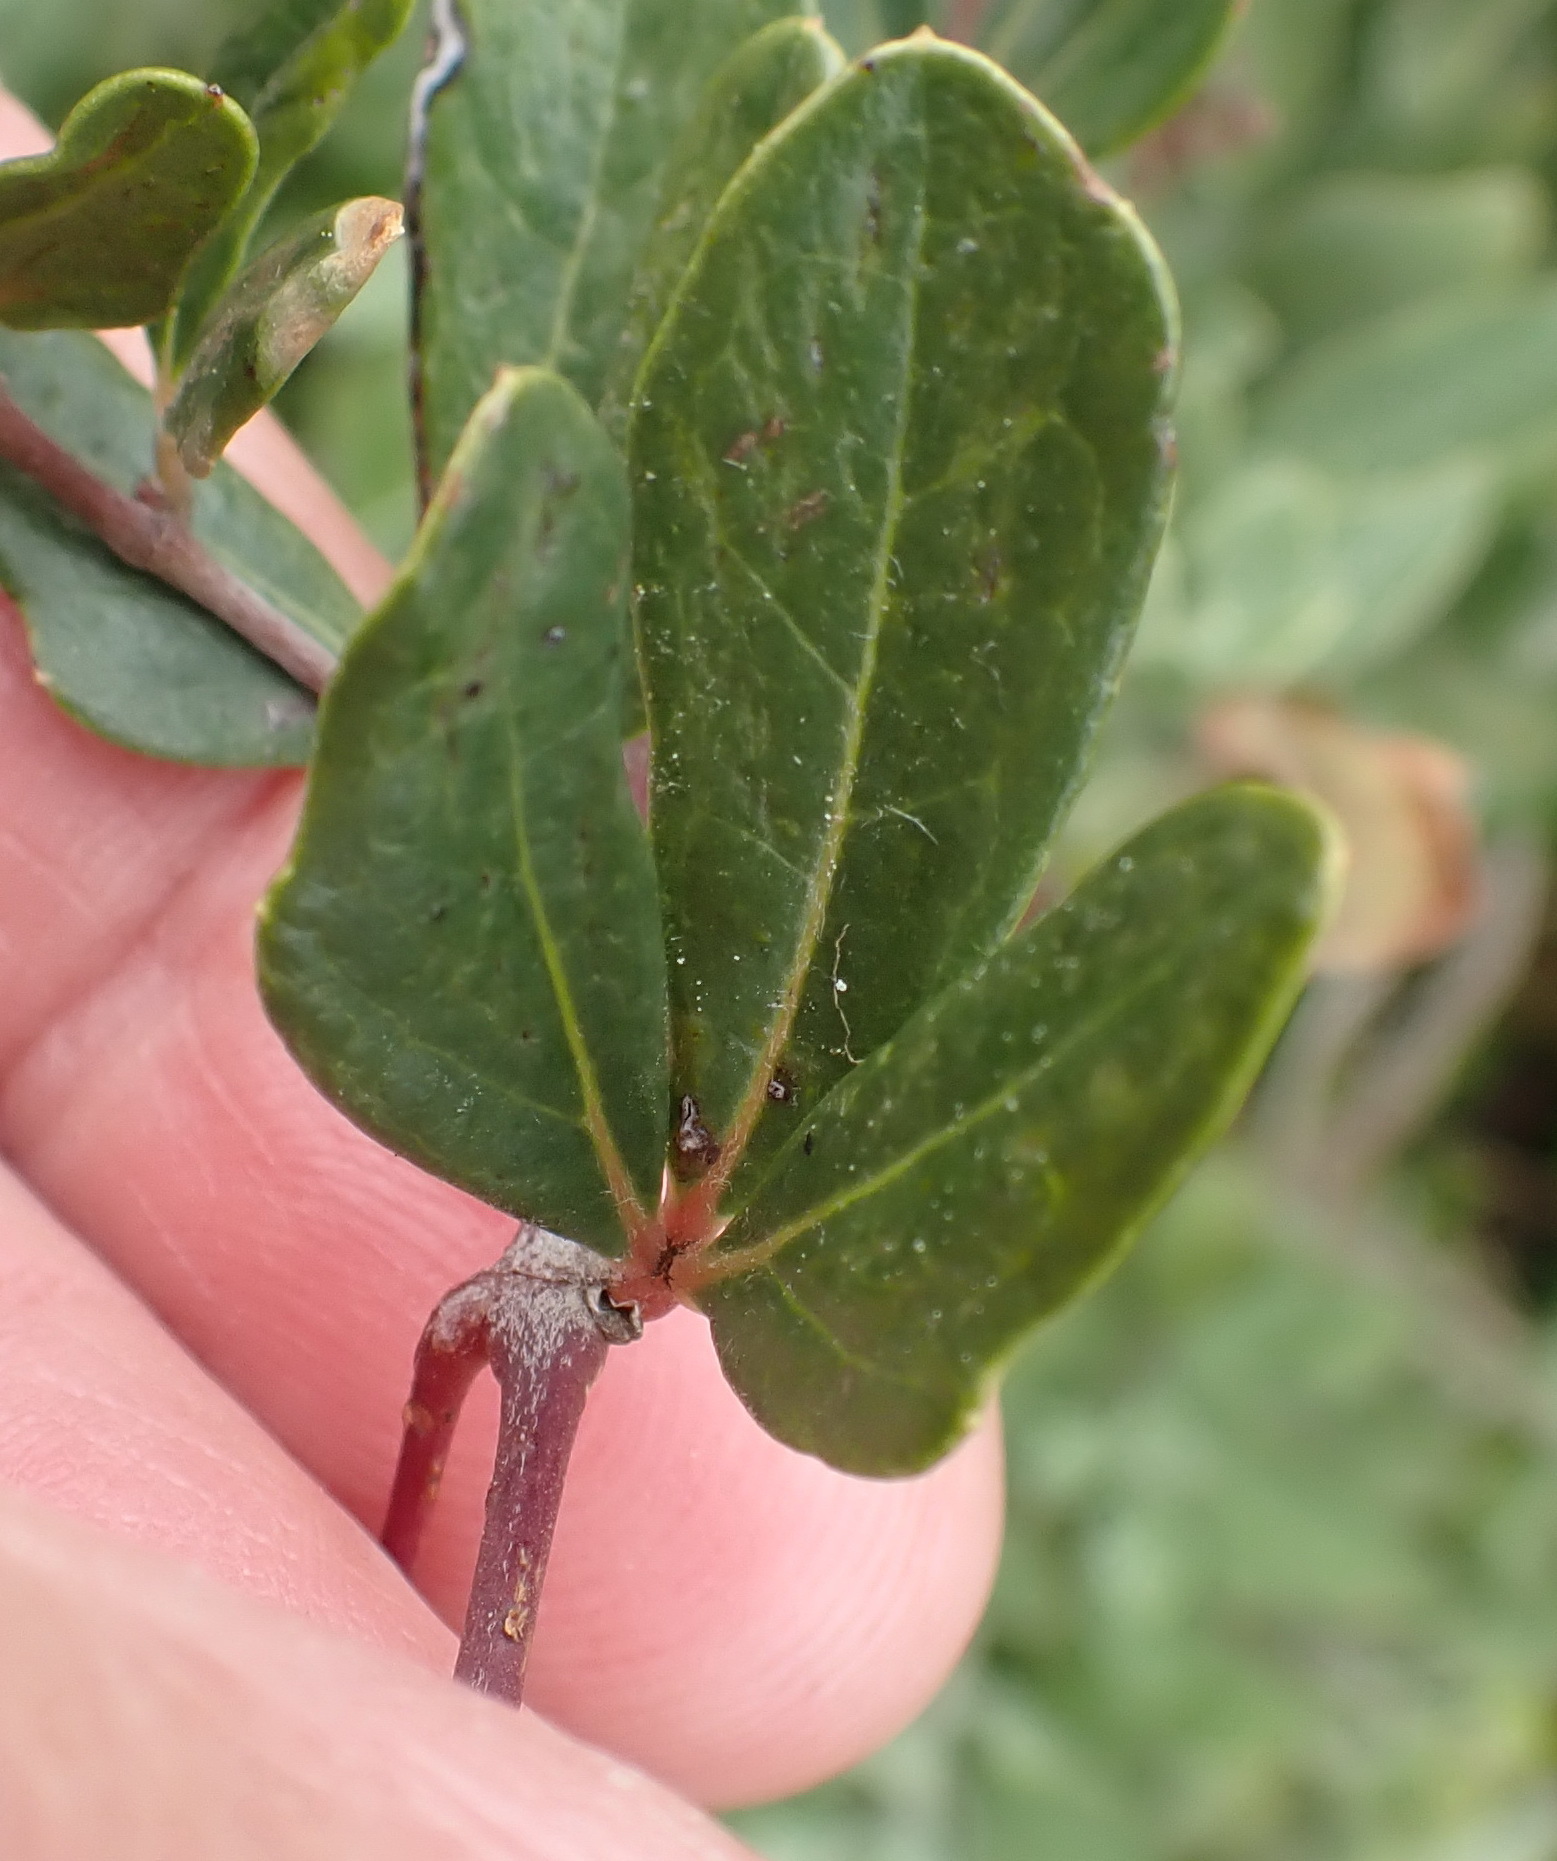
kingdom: Plantae
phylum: Tracheophyta
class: Magnoliopsida
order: Vitales
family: Vitaceae
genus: Rhoicissus
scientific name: Rhoicissus tridentata
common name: Common forest grape
